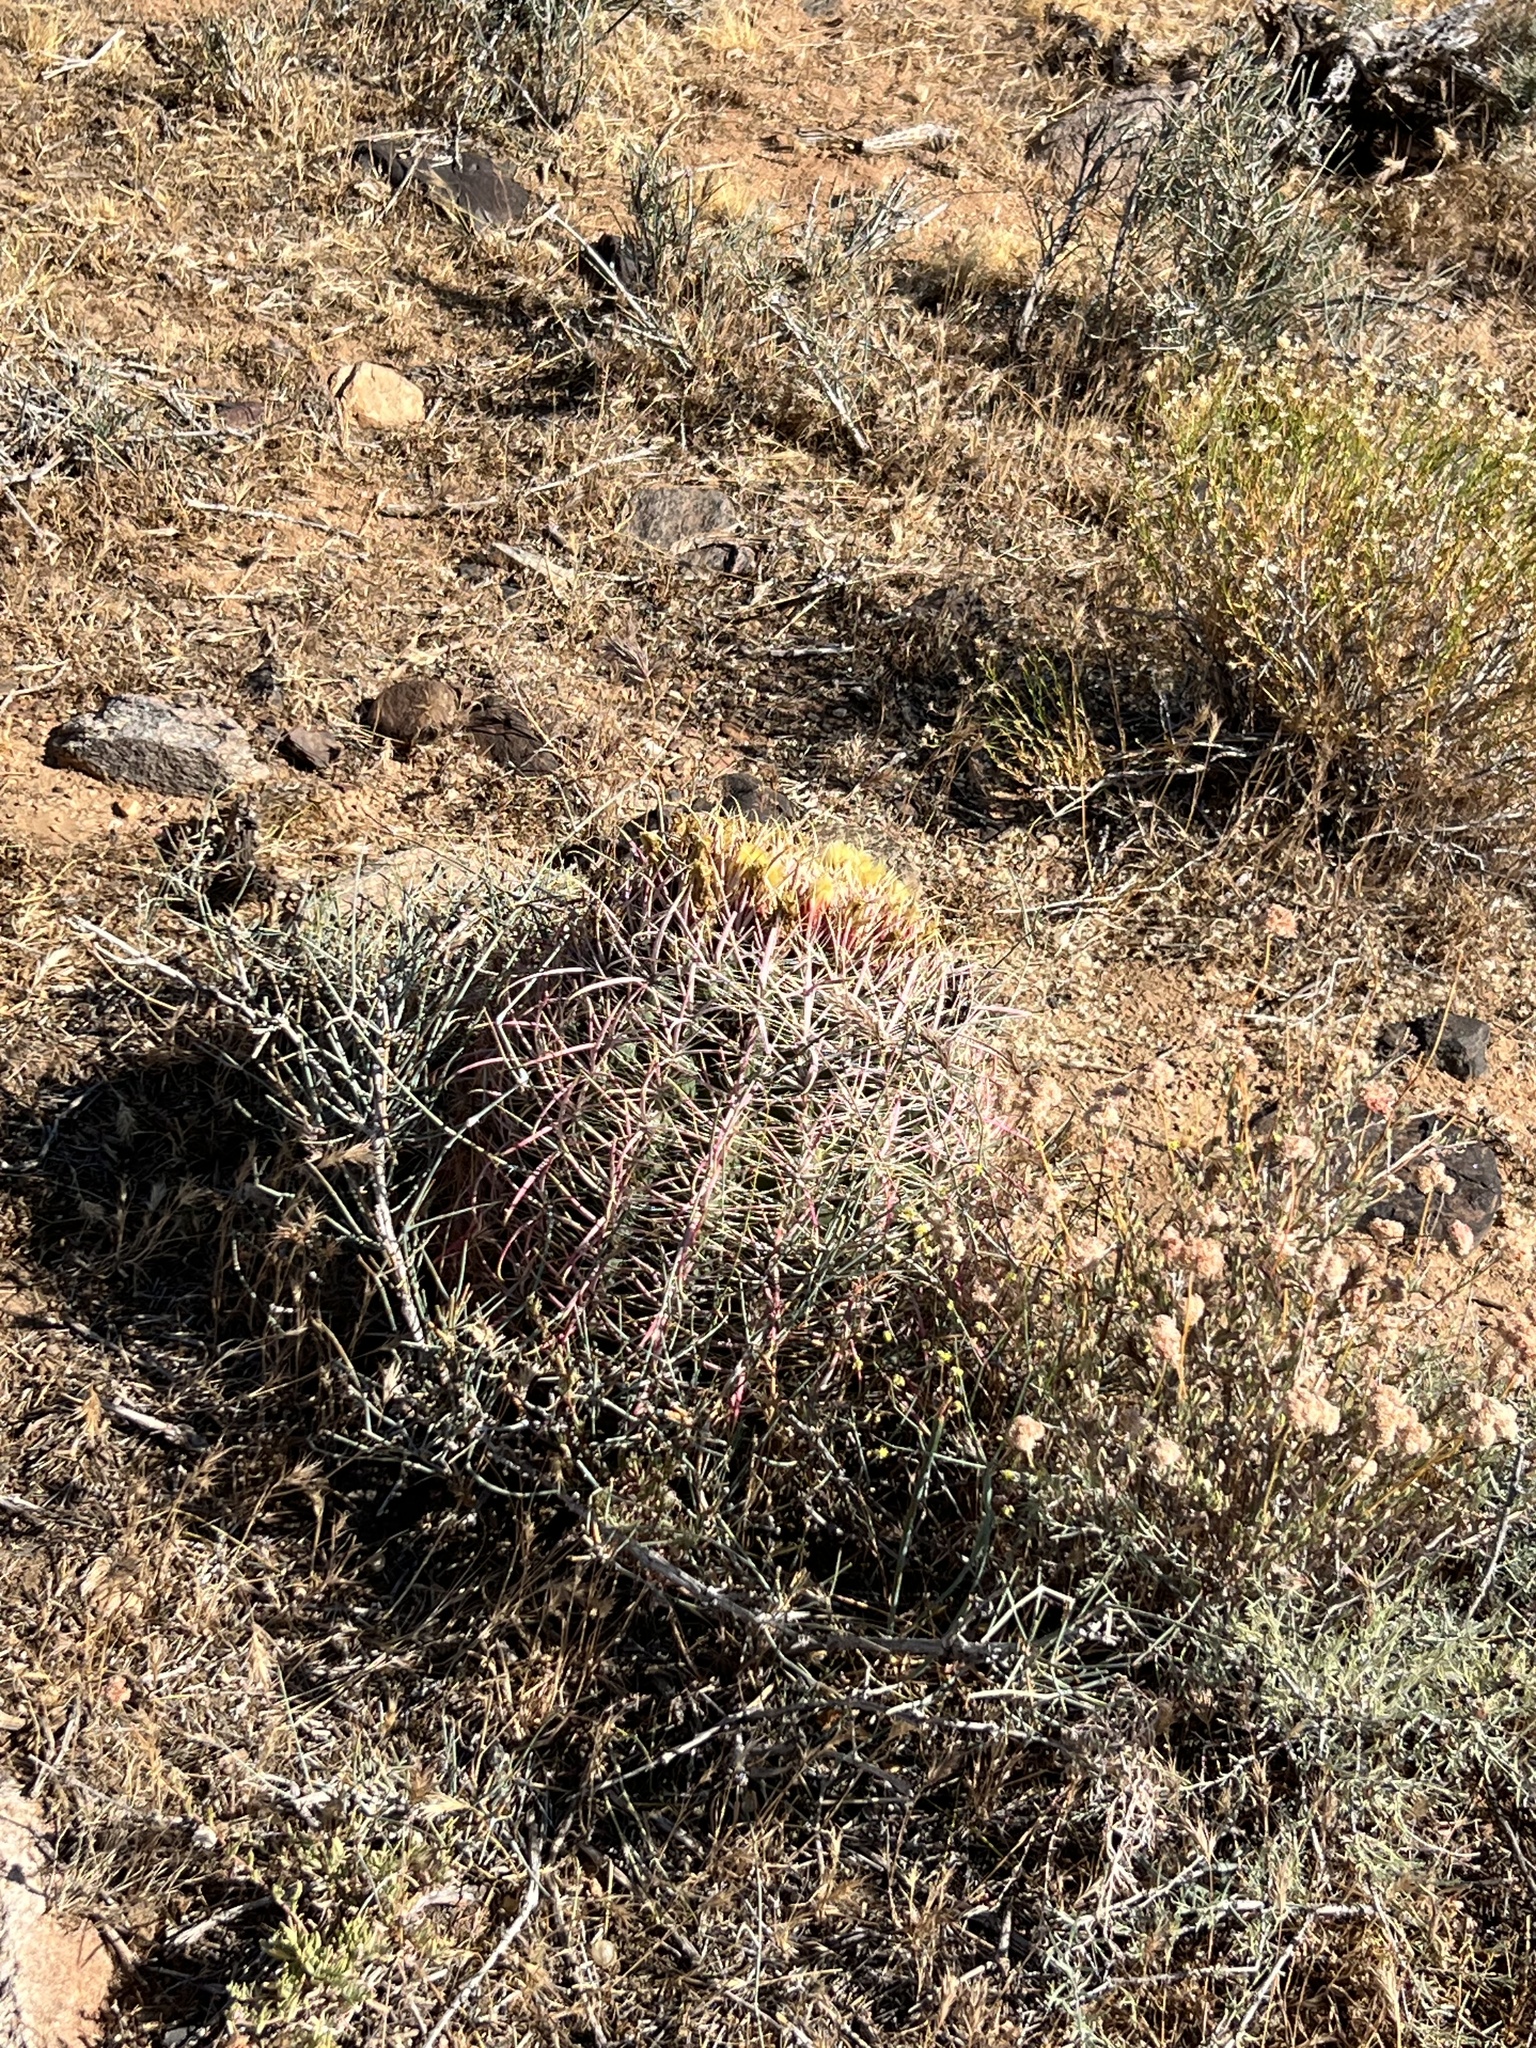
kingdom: Plantae
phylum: Tracheophyta
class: Magnoliopsida
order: Caryophyllales
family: Cactaceae
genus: Ferocactus
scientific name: Ferocactus cylindraceus
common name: California barrel cactus
